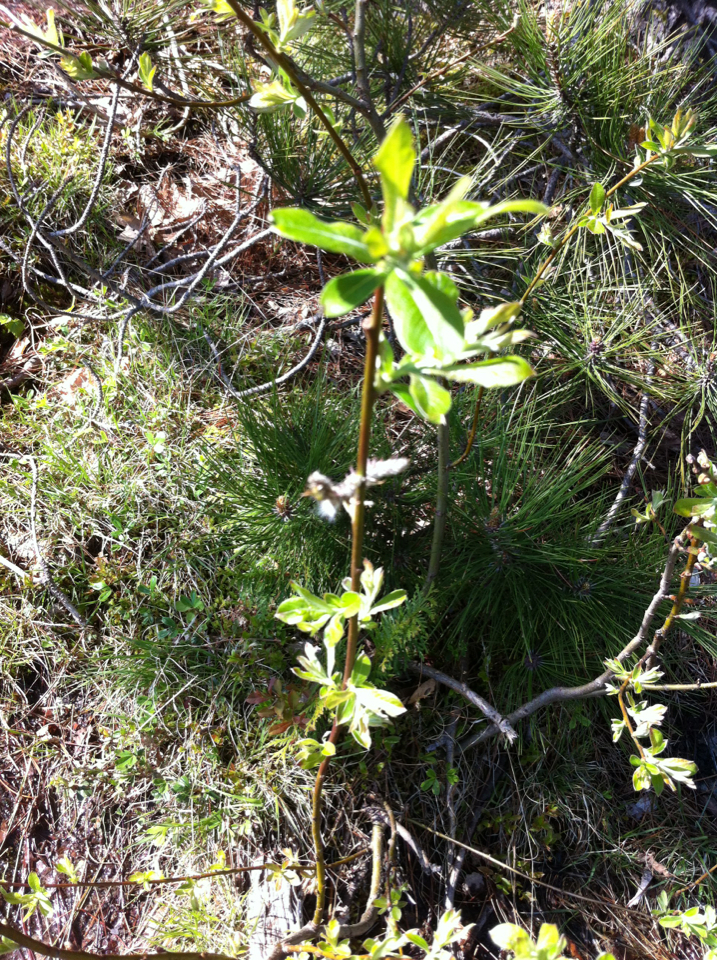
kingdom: Plantae
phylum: Tracheophyta
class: Magnoliopsida
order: Malpighiales
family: Salicaceae
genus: Salix
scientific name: Salix humilis
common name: Prairie willow
